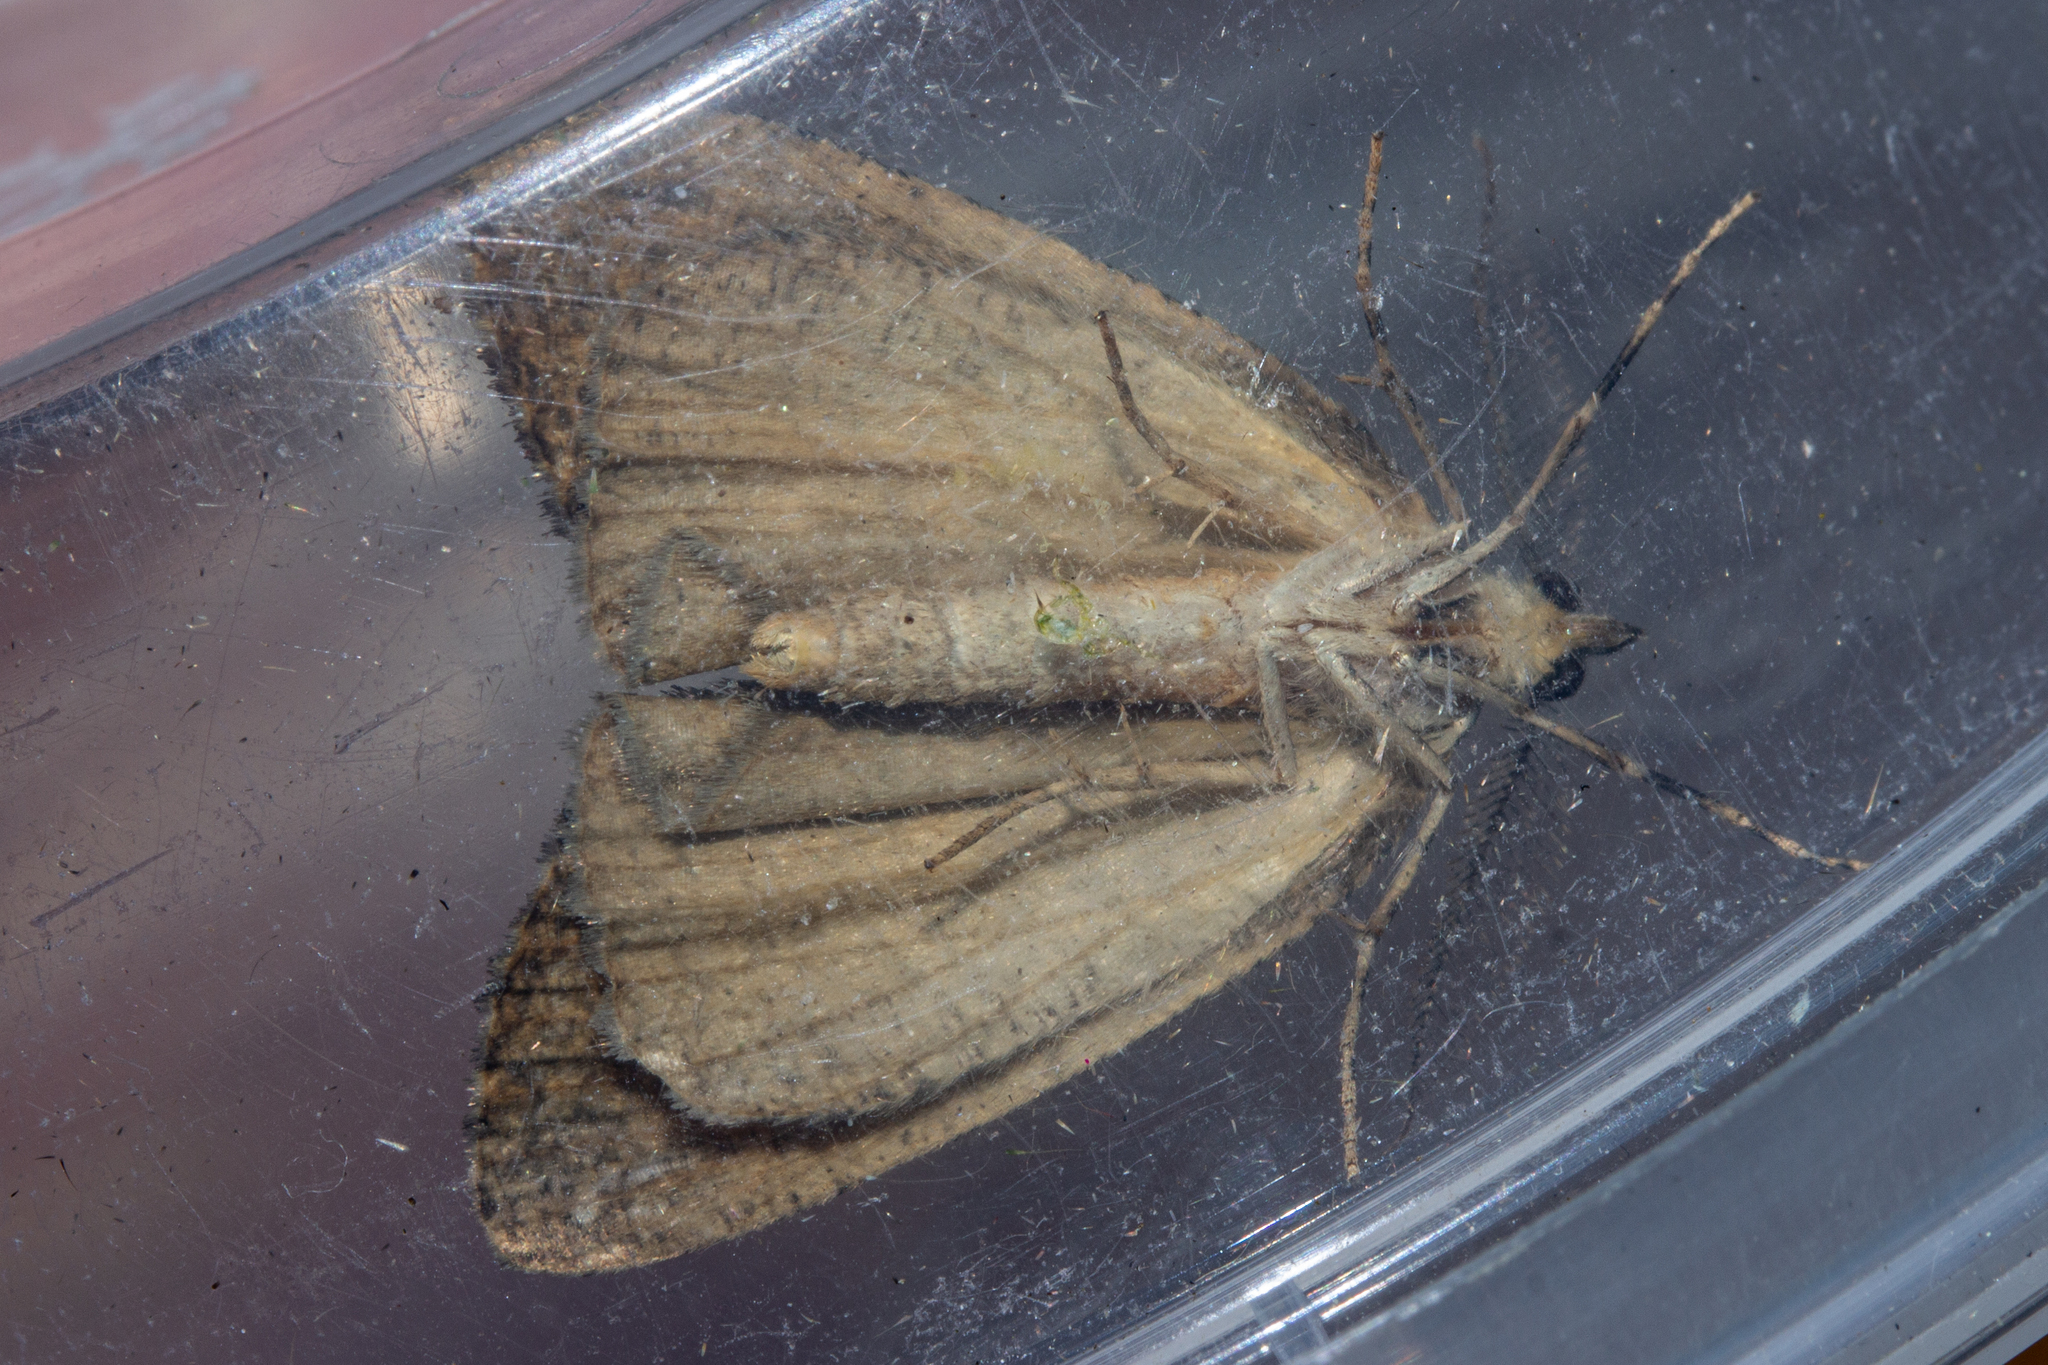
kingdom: Animalia
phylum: Arthropoda
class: Insecta
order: Lepidoptera
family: Geometridae
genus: Chalastra
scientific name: Chalastra ochrea
